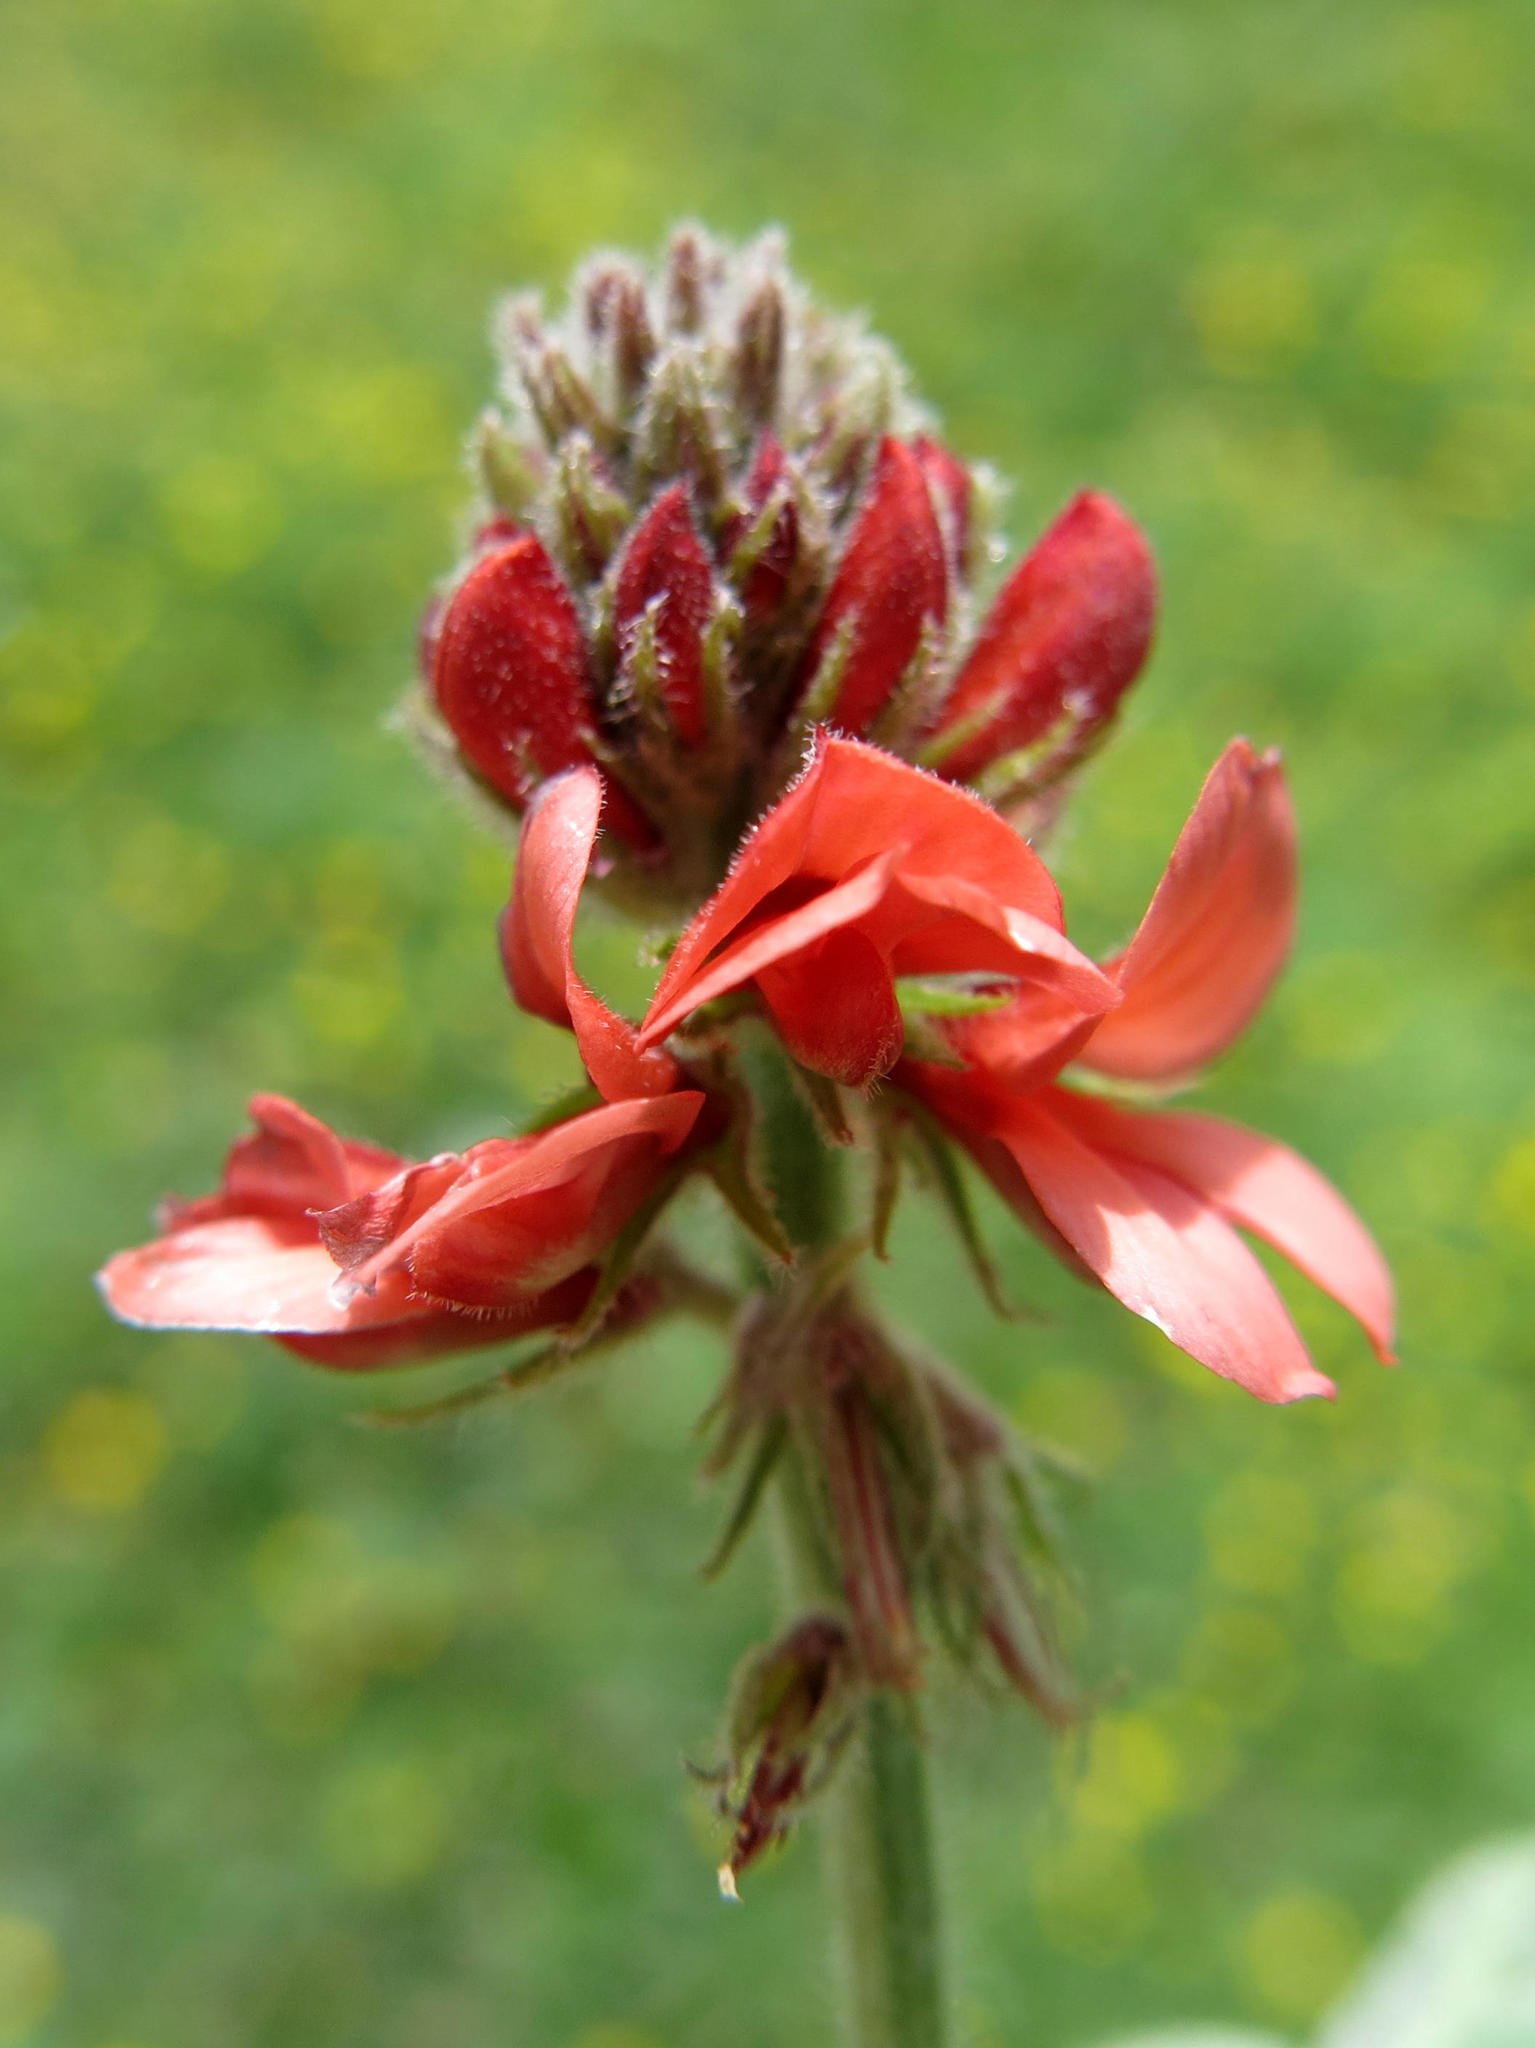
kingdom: Plantae
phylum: Tracheophyta
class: Magnoliopsida
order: Fabales
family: Fabaceae
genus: Indigofera
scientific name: Indigofera tomentosa
